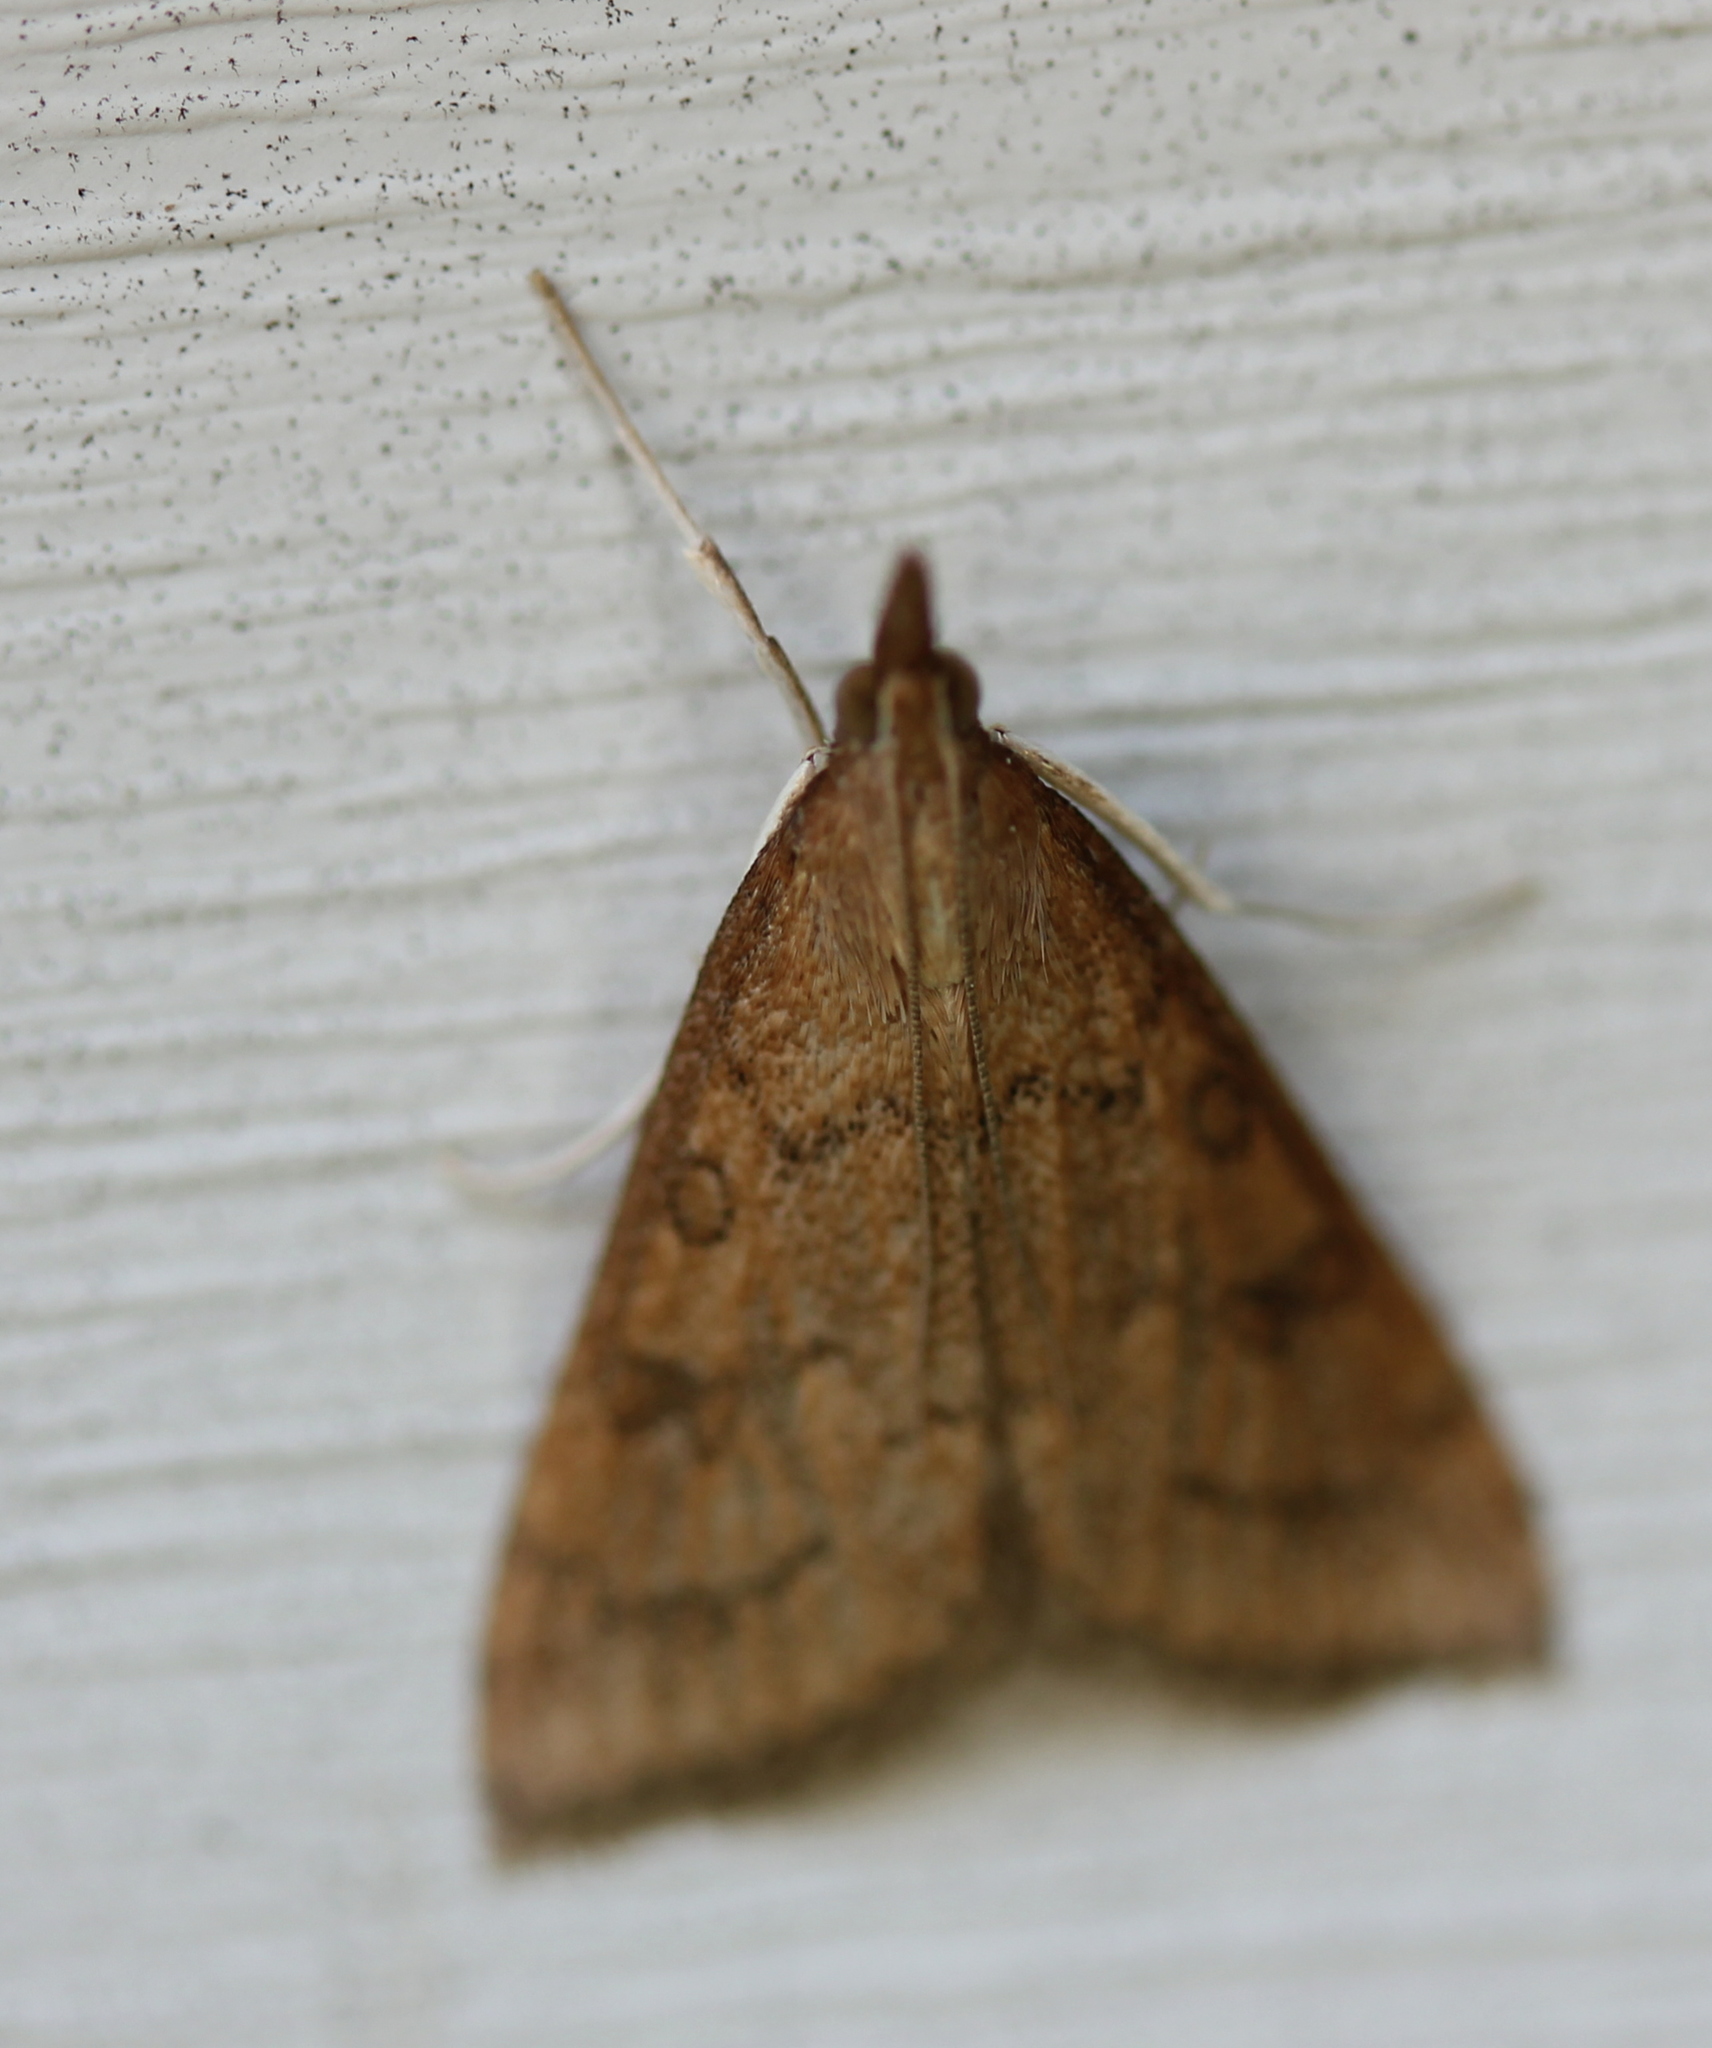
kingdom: Animalia
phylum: Arthropoda
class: Insecta
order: Lepidoptera
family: Crambidae
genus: Udea
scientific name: Udea rubigalis
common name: Celery leaftier moth
